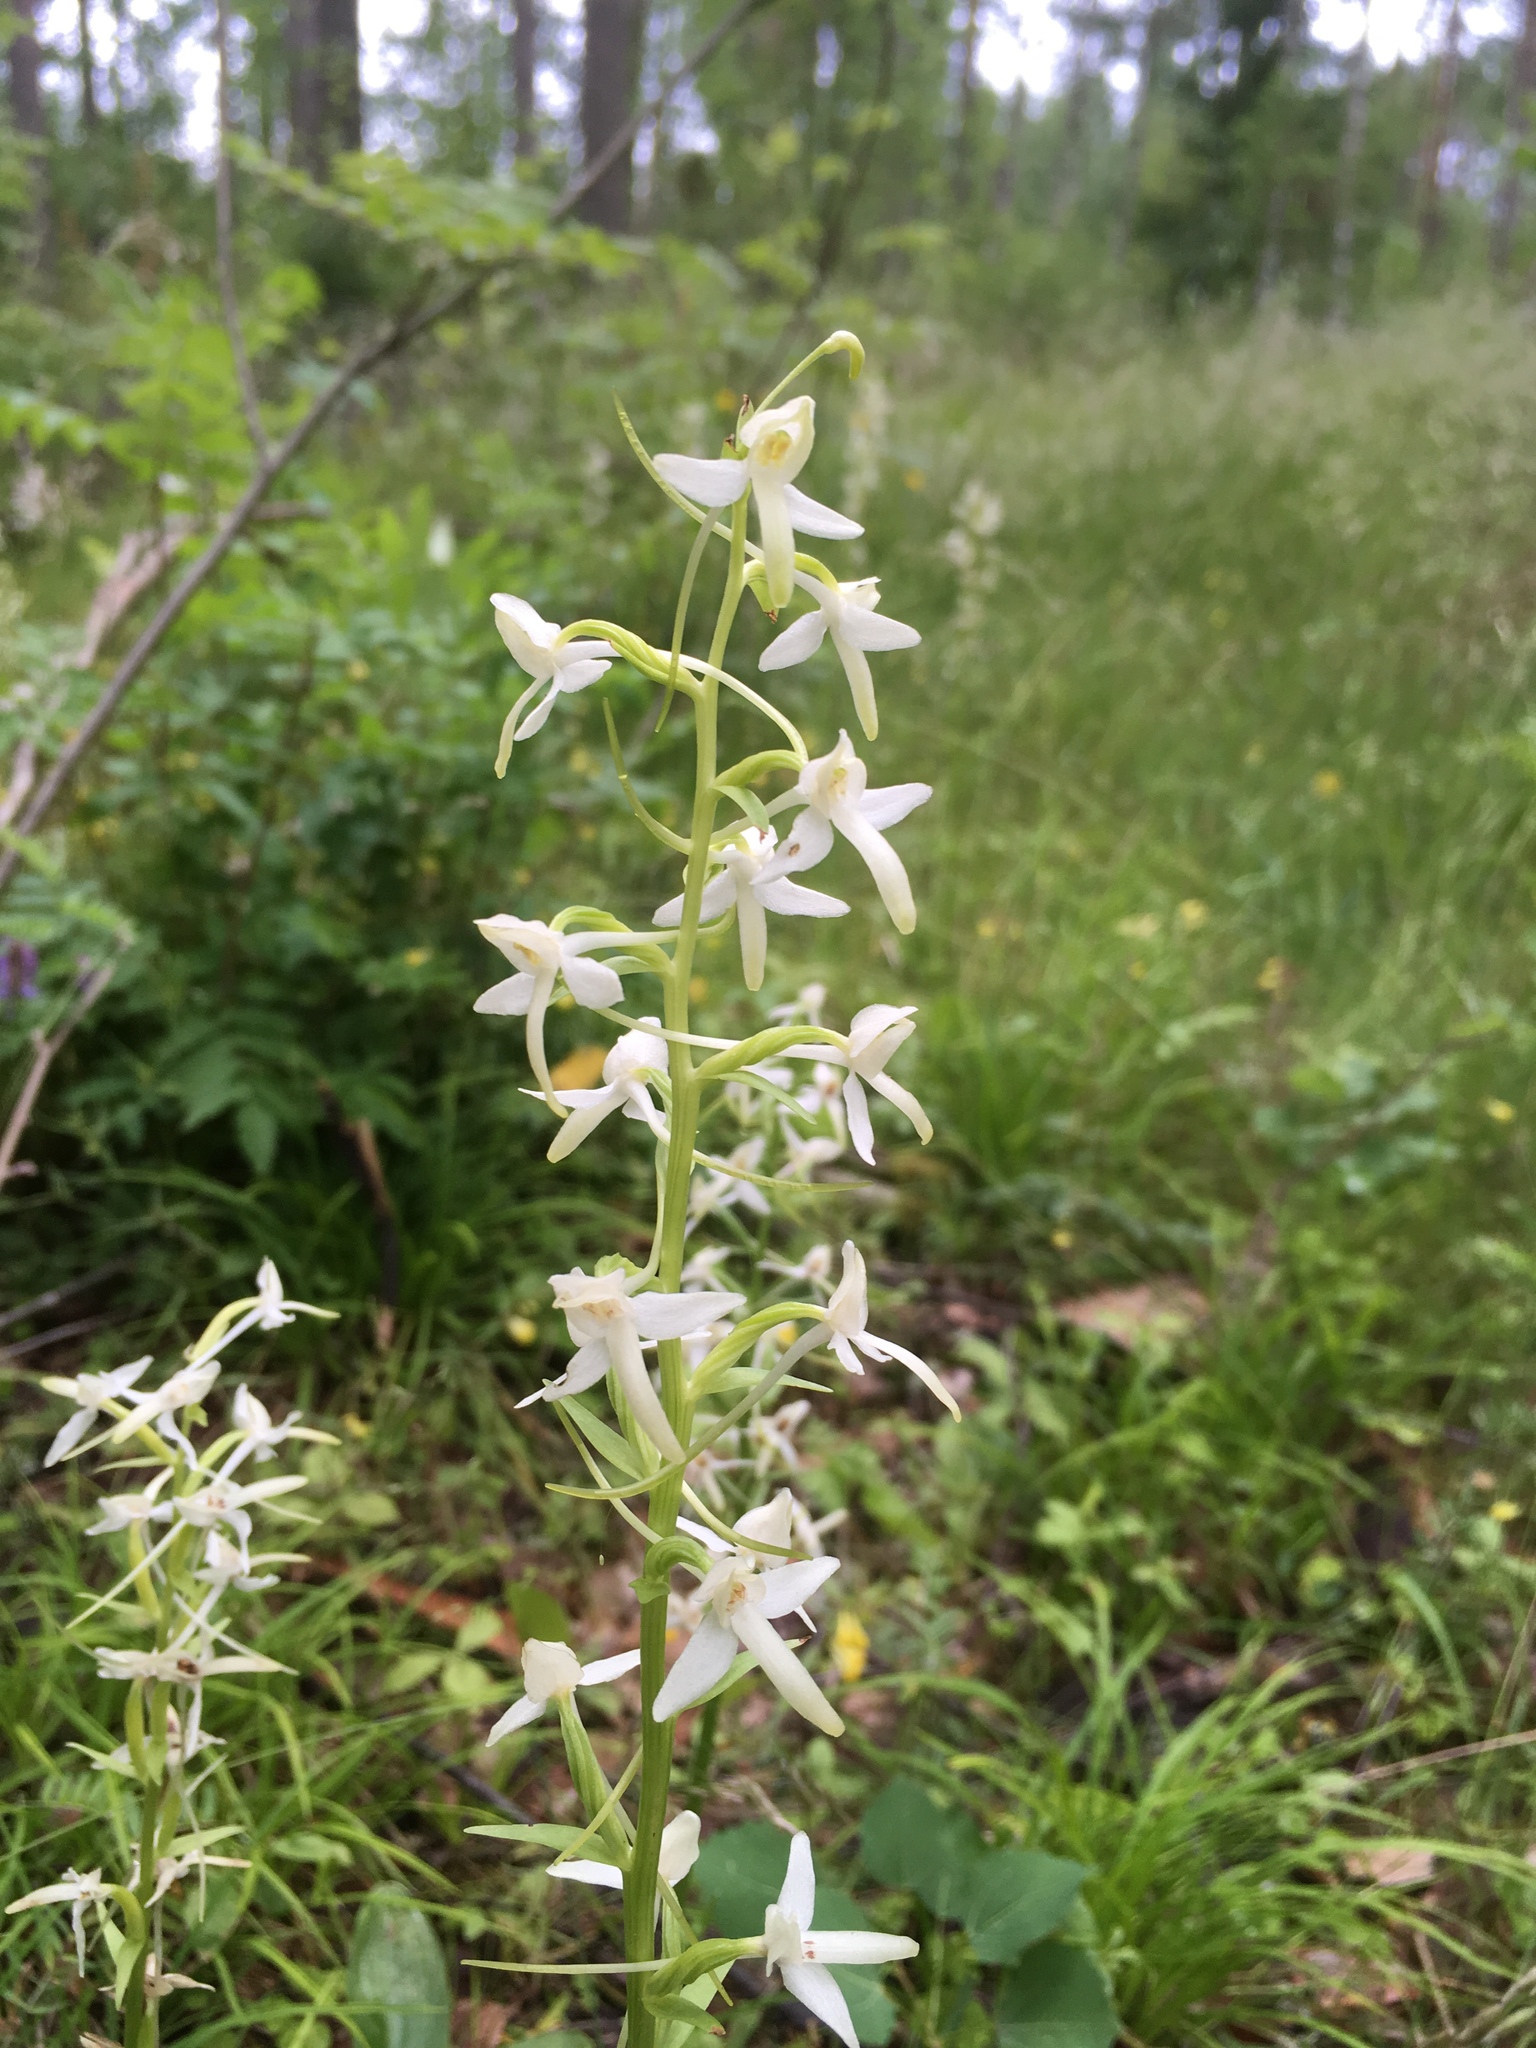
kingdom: Plantae
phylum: Tracheophyta
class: Liliopsida
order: Asparagales
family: Orchidaceae
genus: Platanthera
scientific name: Platanthera bifolia
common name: Lesser butterfly-orchid
